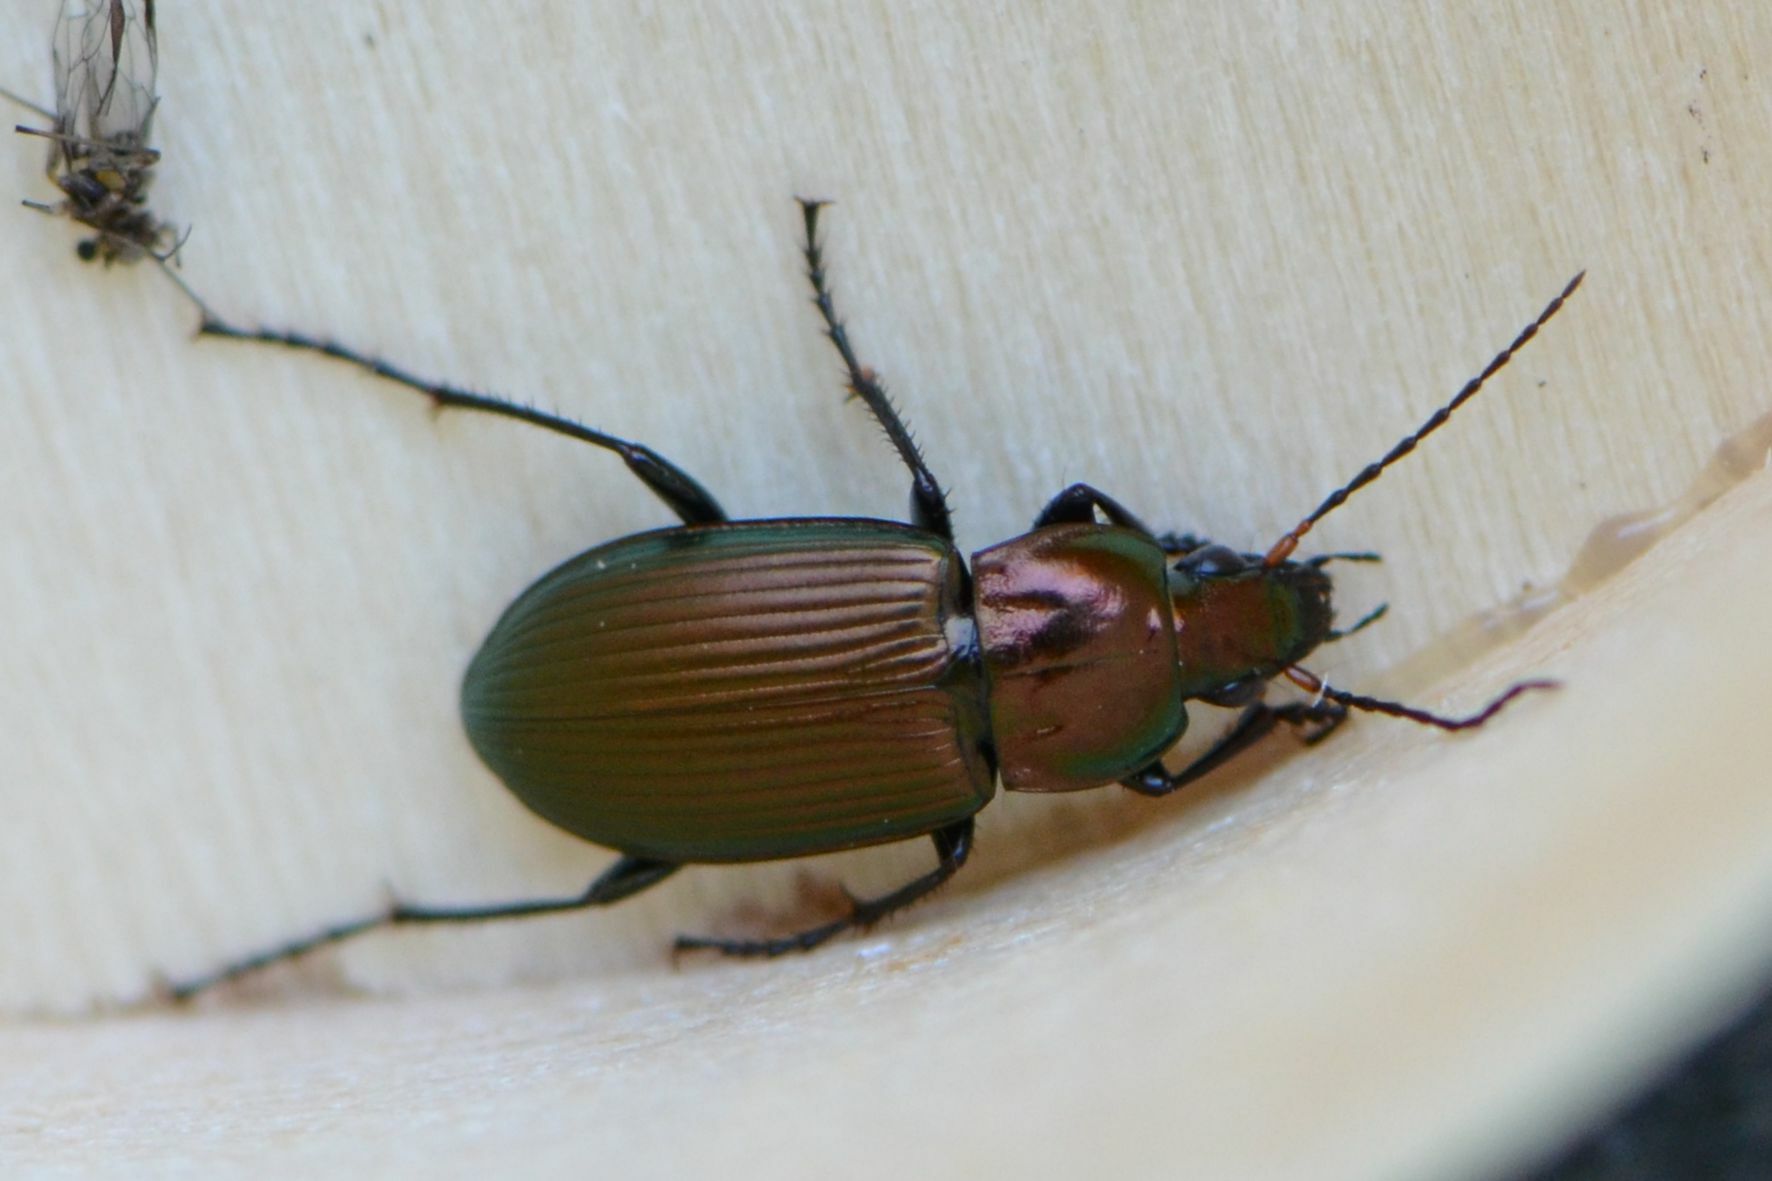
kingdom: Animalia
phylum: Arthropoda
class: Insecta
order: Coleoptera
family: Carabidae
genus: Poecilus
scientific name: Poecilus cupreus
